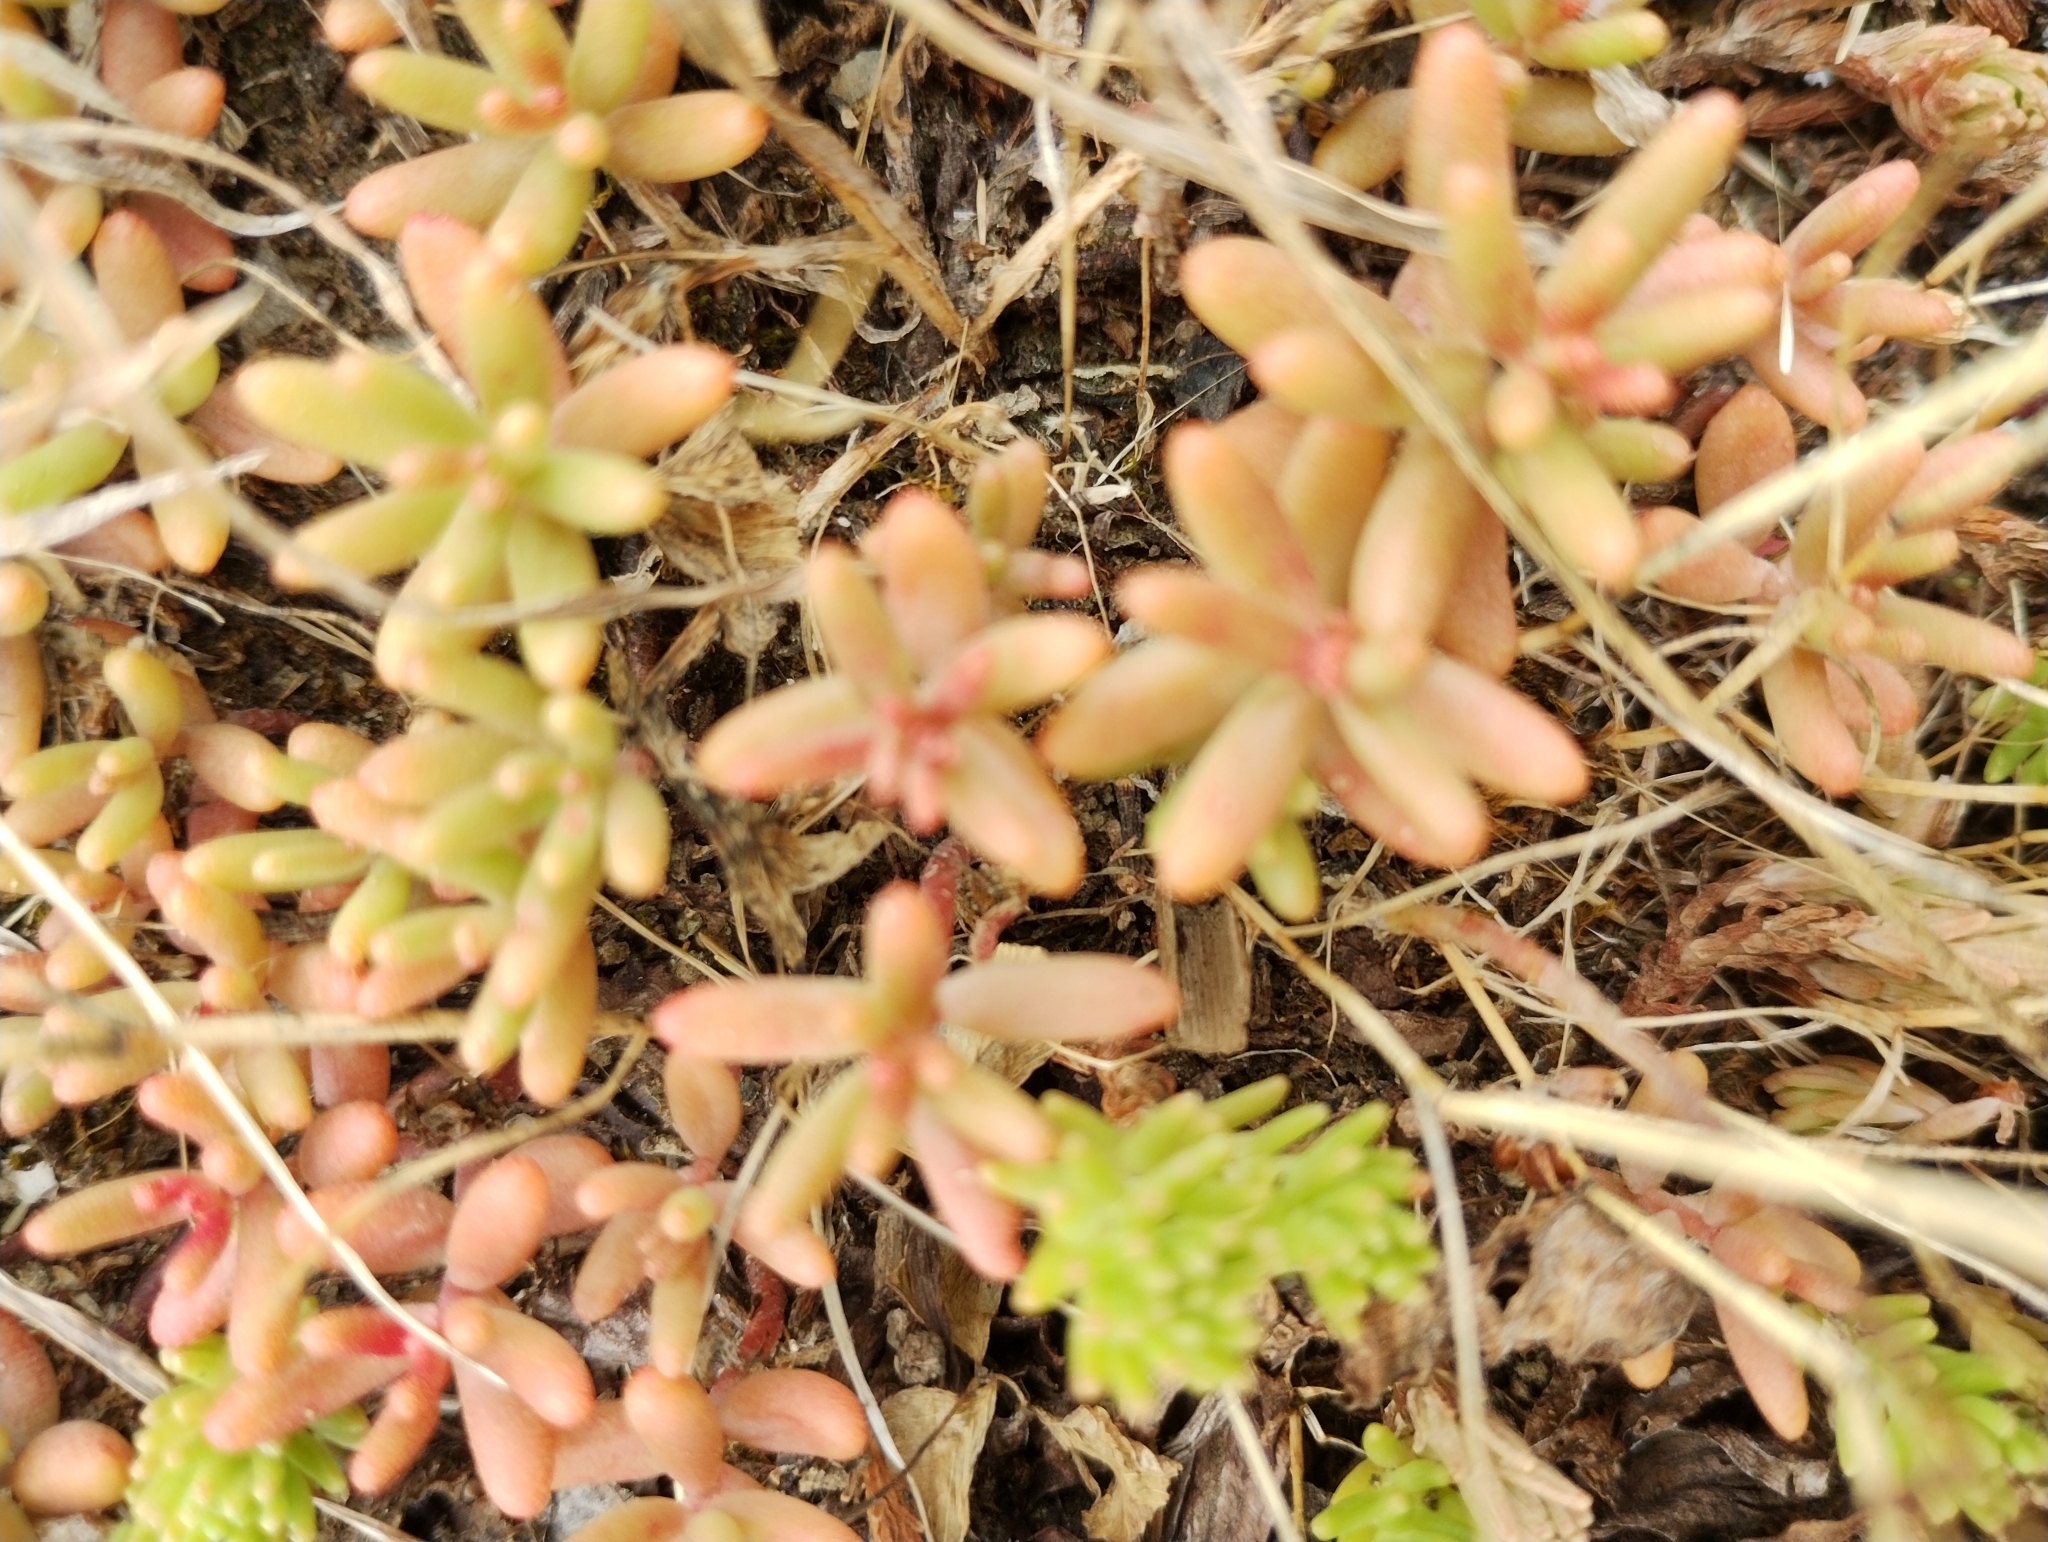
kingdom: Plantae
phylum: Tracheophyta
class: Magnoliopsida
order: Saxifragales
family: Crassulaceae
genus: Sedum
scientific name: Sedum album
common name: White stonecrop
